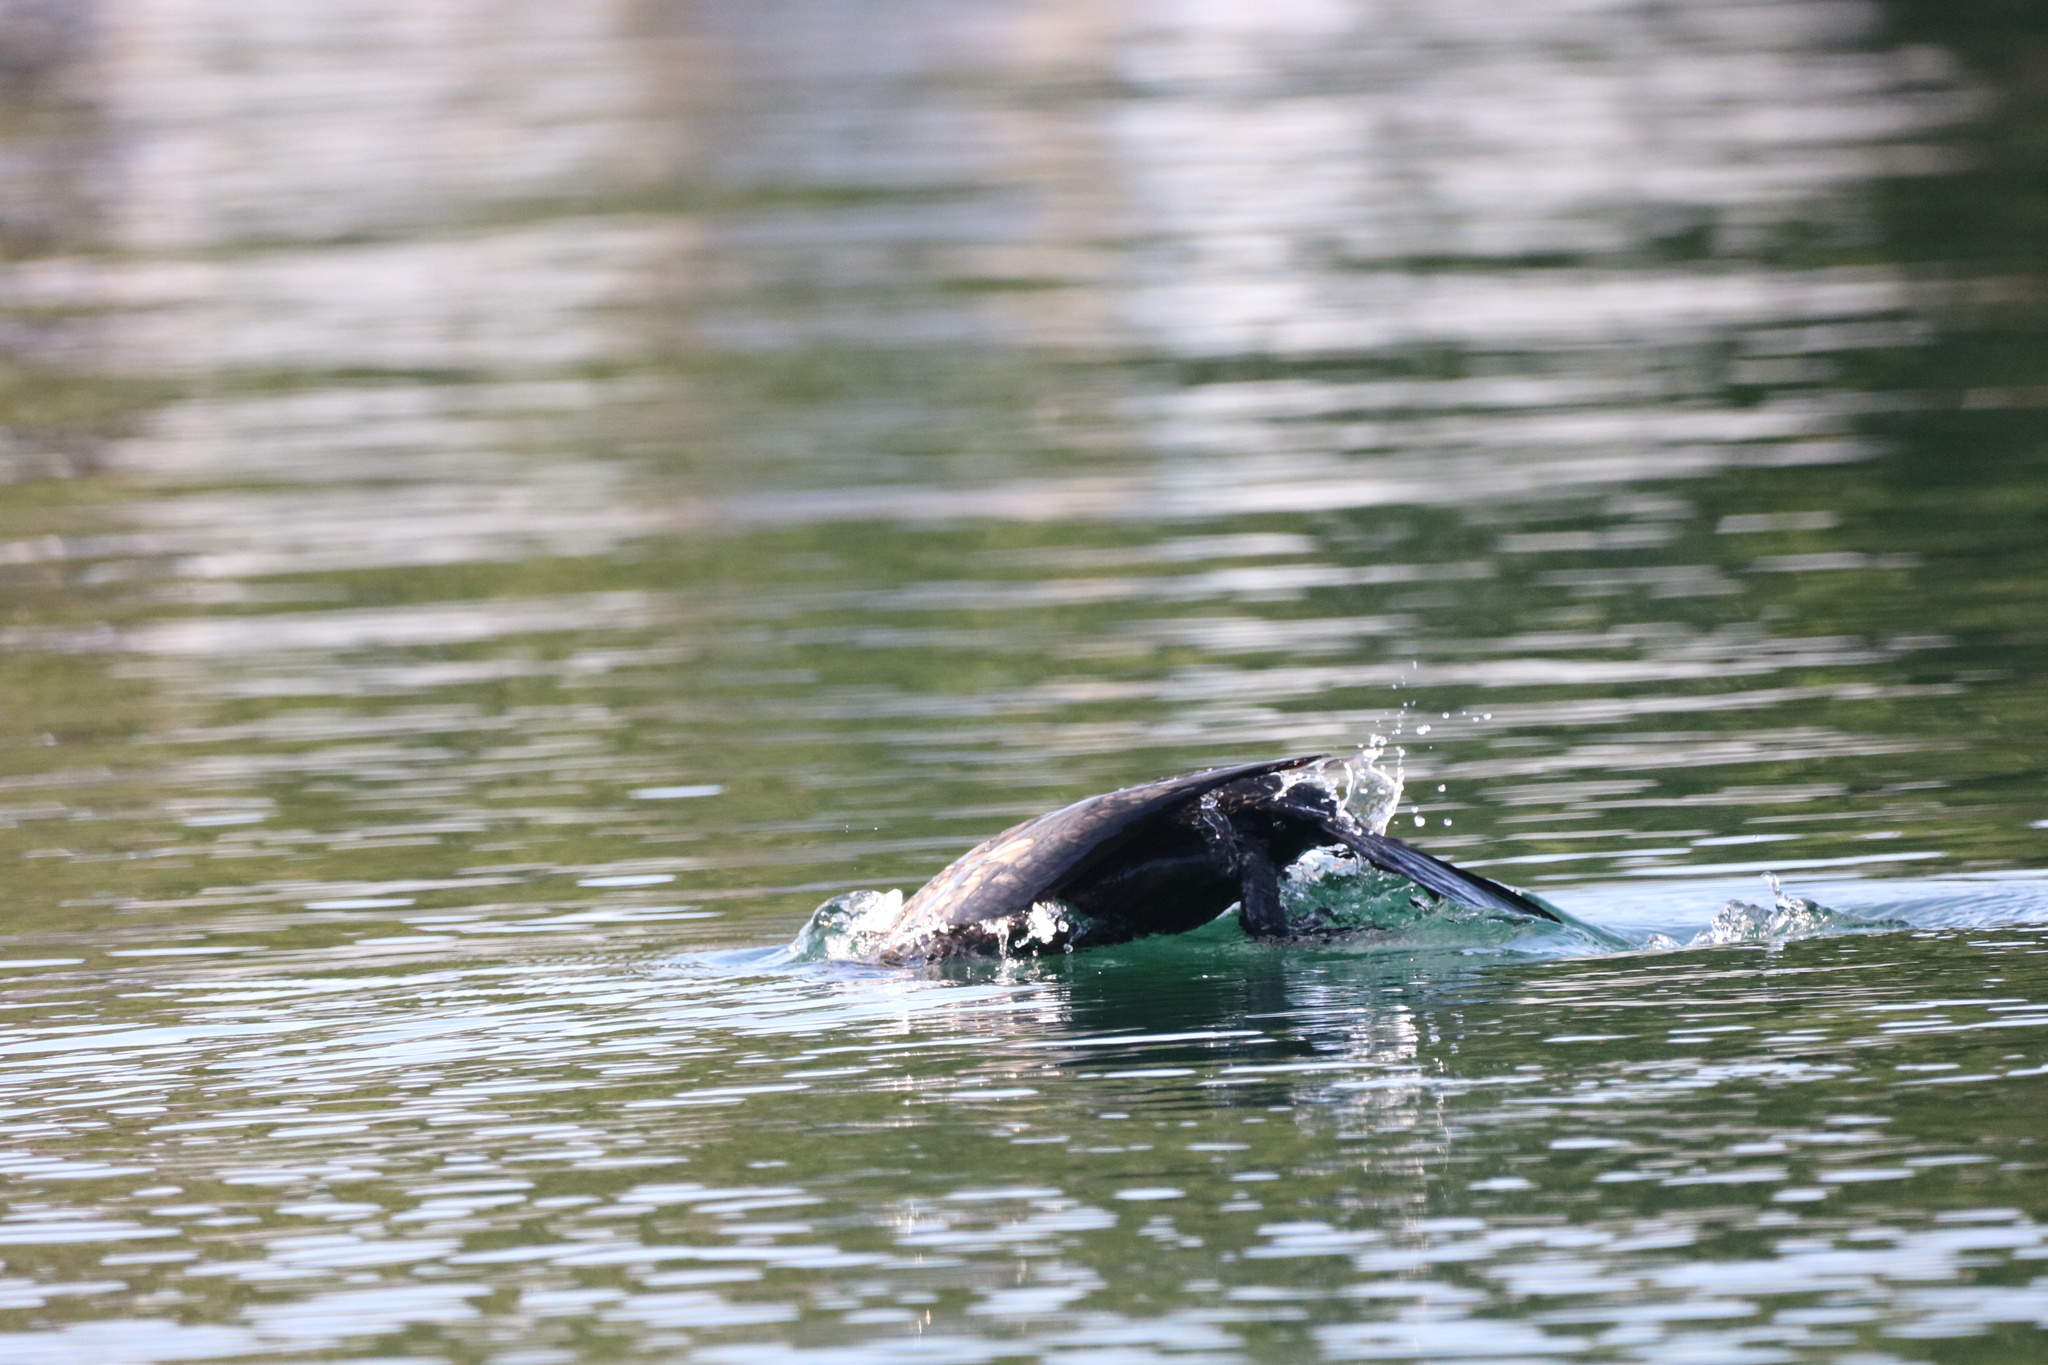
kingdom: Animalia
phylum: Chordata
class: Aves
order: Suliformes
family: Phalacrocoracidae
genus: Phalacrocorax
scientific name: Phalacrocorax auritus
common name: Double-crested cormorant
